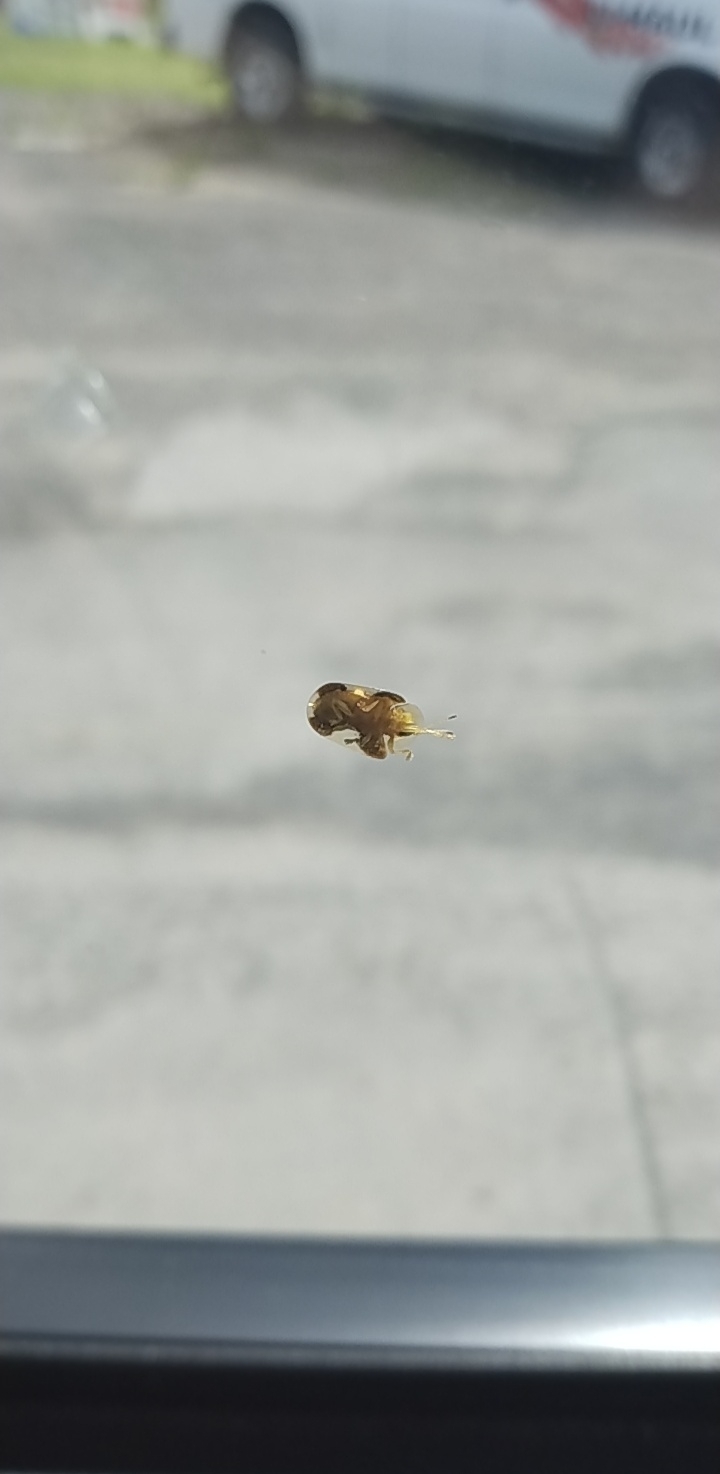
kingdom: Animalia
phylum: Arthropoda
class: Insecta
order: Coleoptera
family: Chrysomelidae
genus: Helocassis
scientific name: Helocassis clavata
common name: Clavate tortoise beetle
